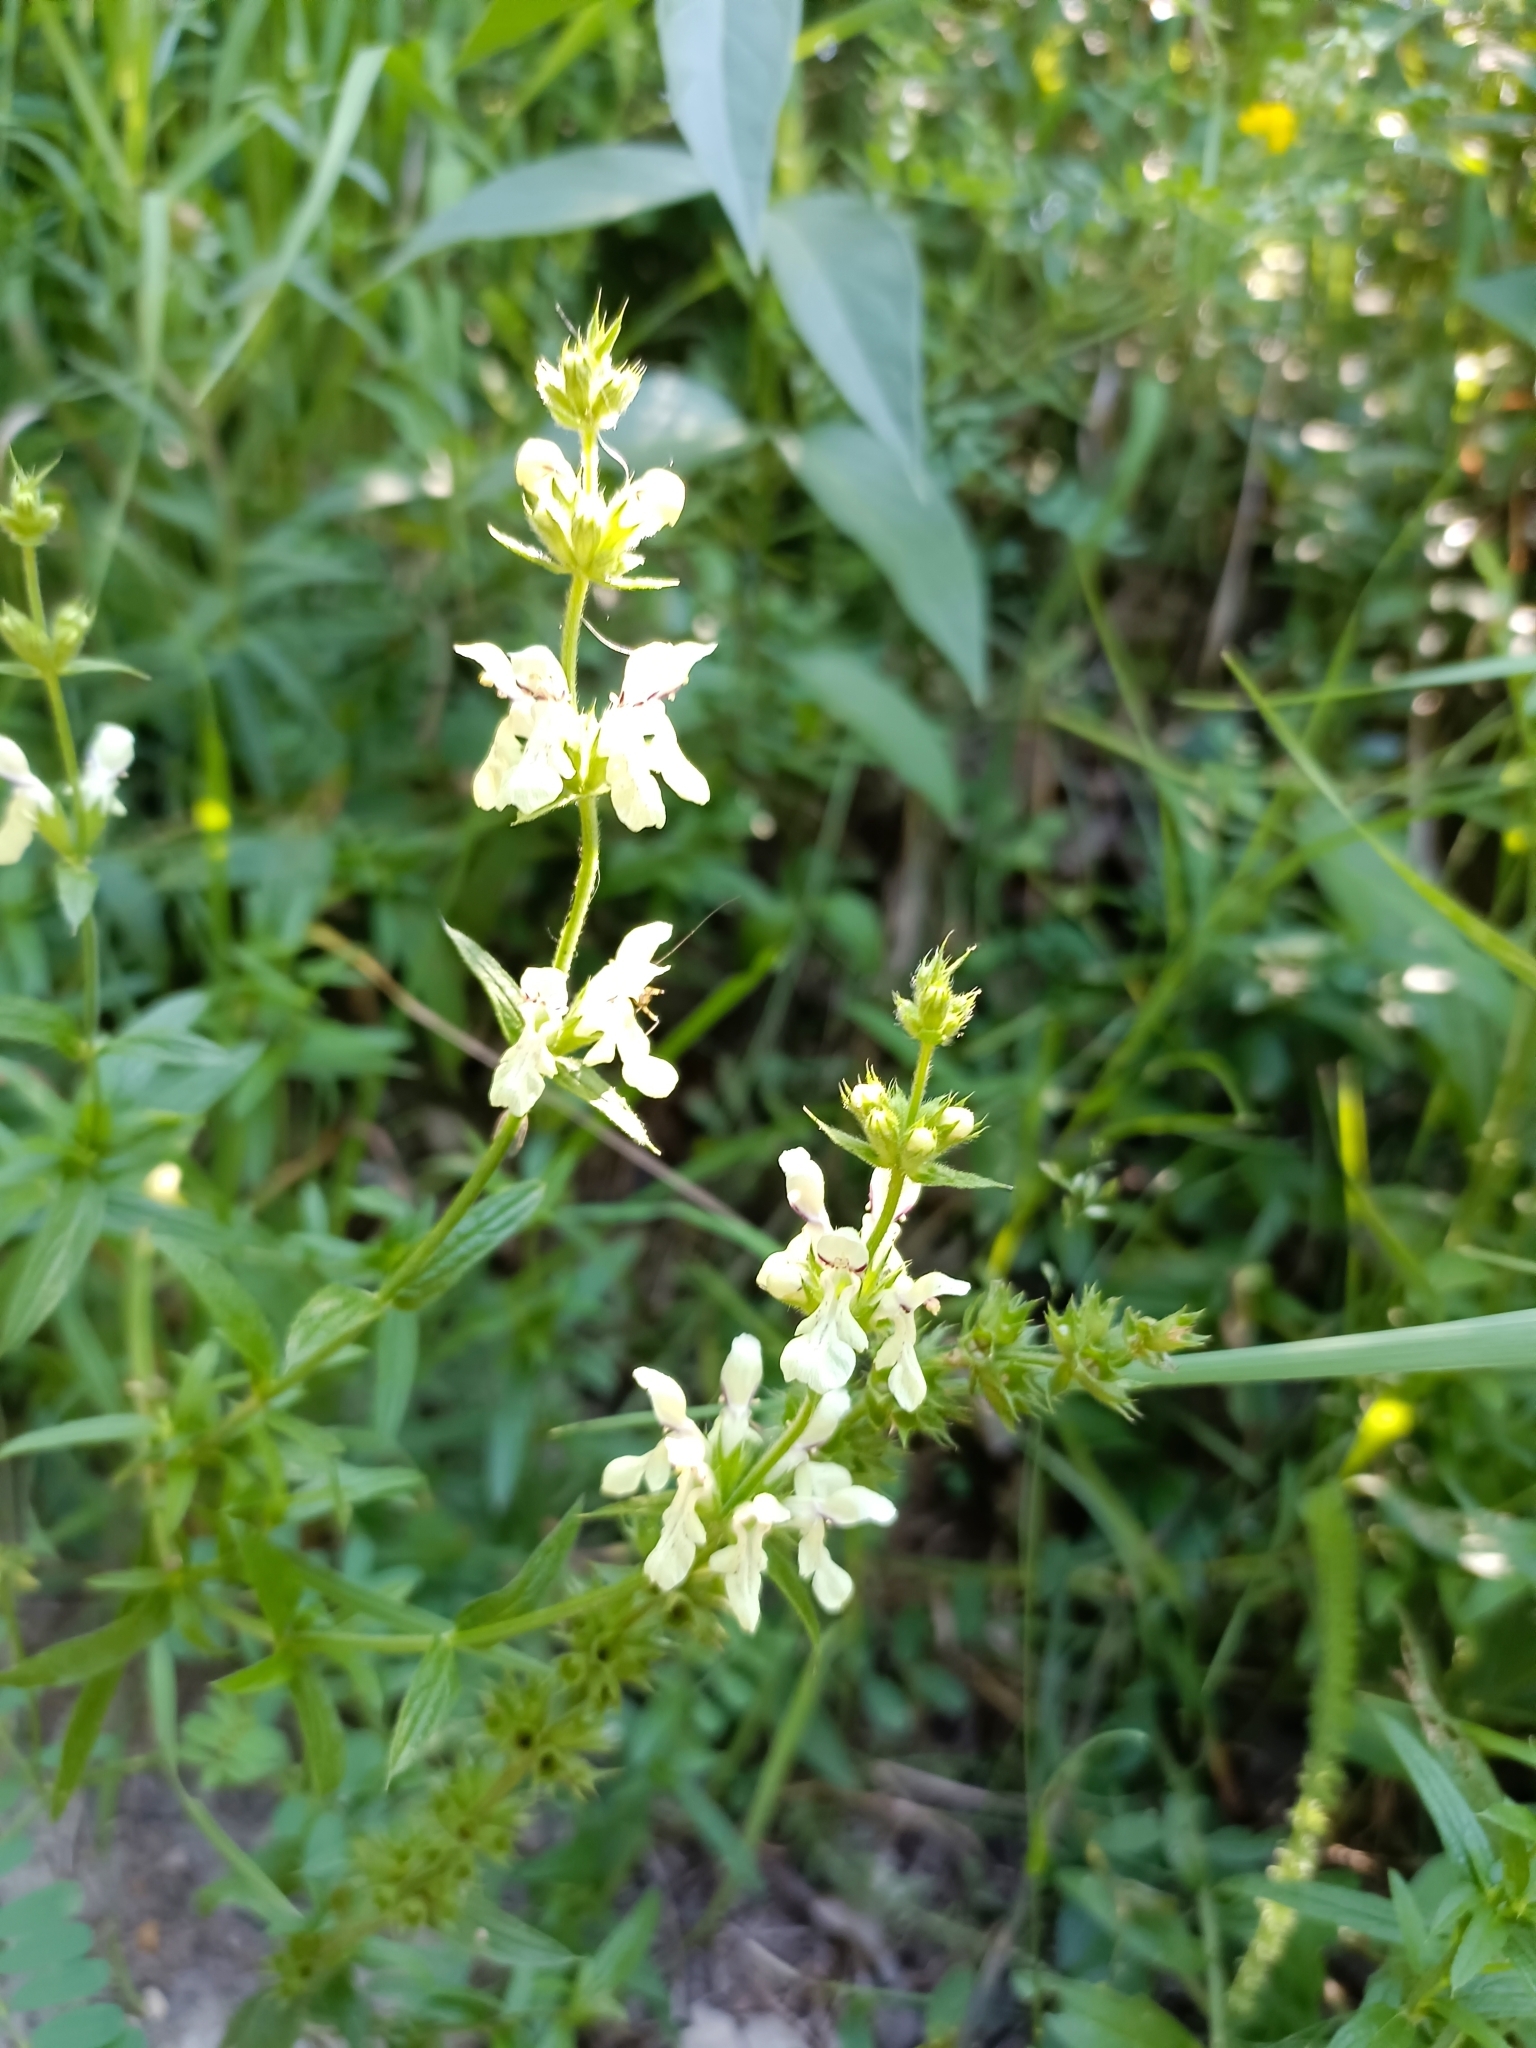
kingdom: Plantae
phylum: Tracheophyta
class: Magnoliopsida
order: Lamiales
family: Lamiaceae
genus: Stachys
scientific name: Stachys recta
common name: Perennial yellow-woundwort
